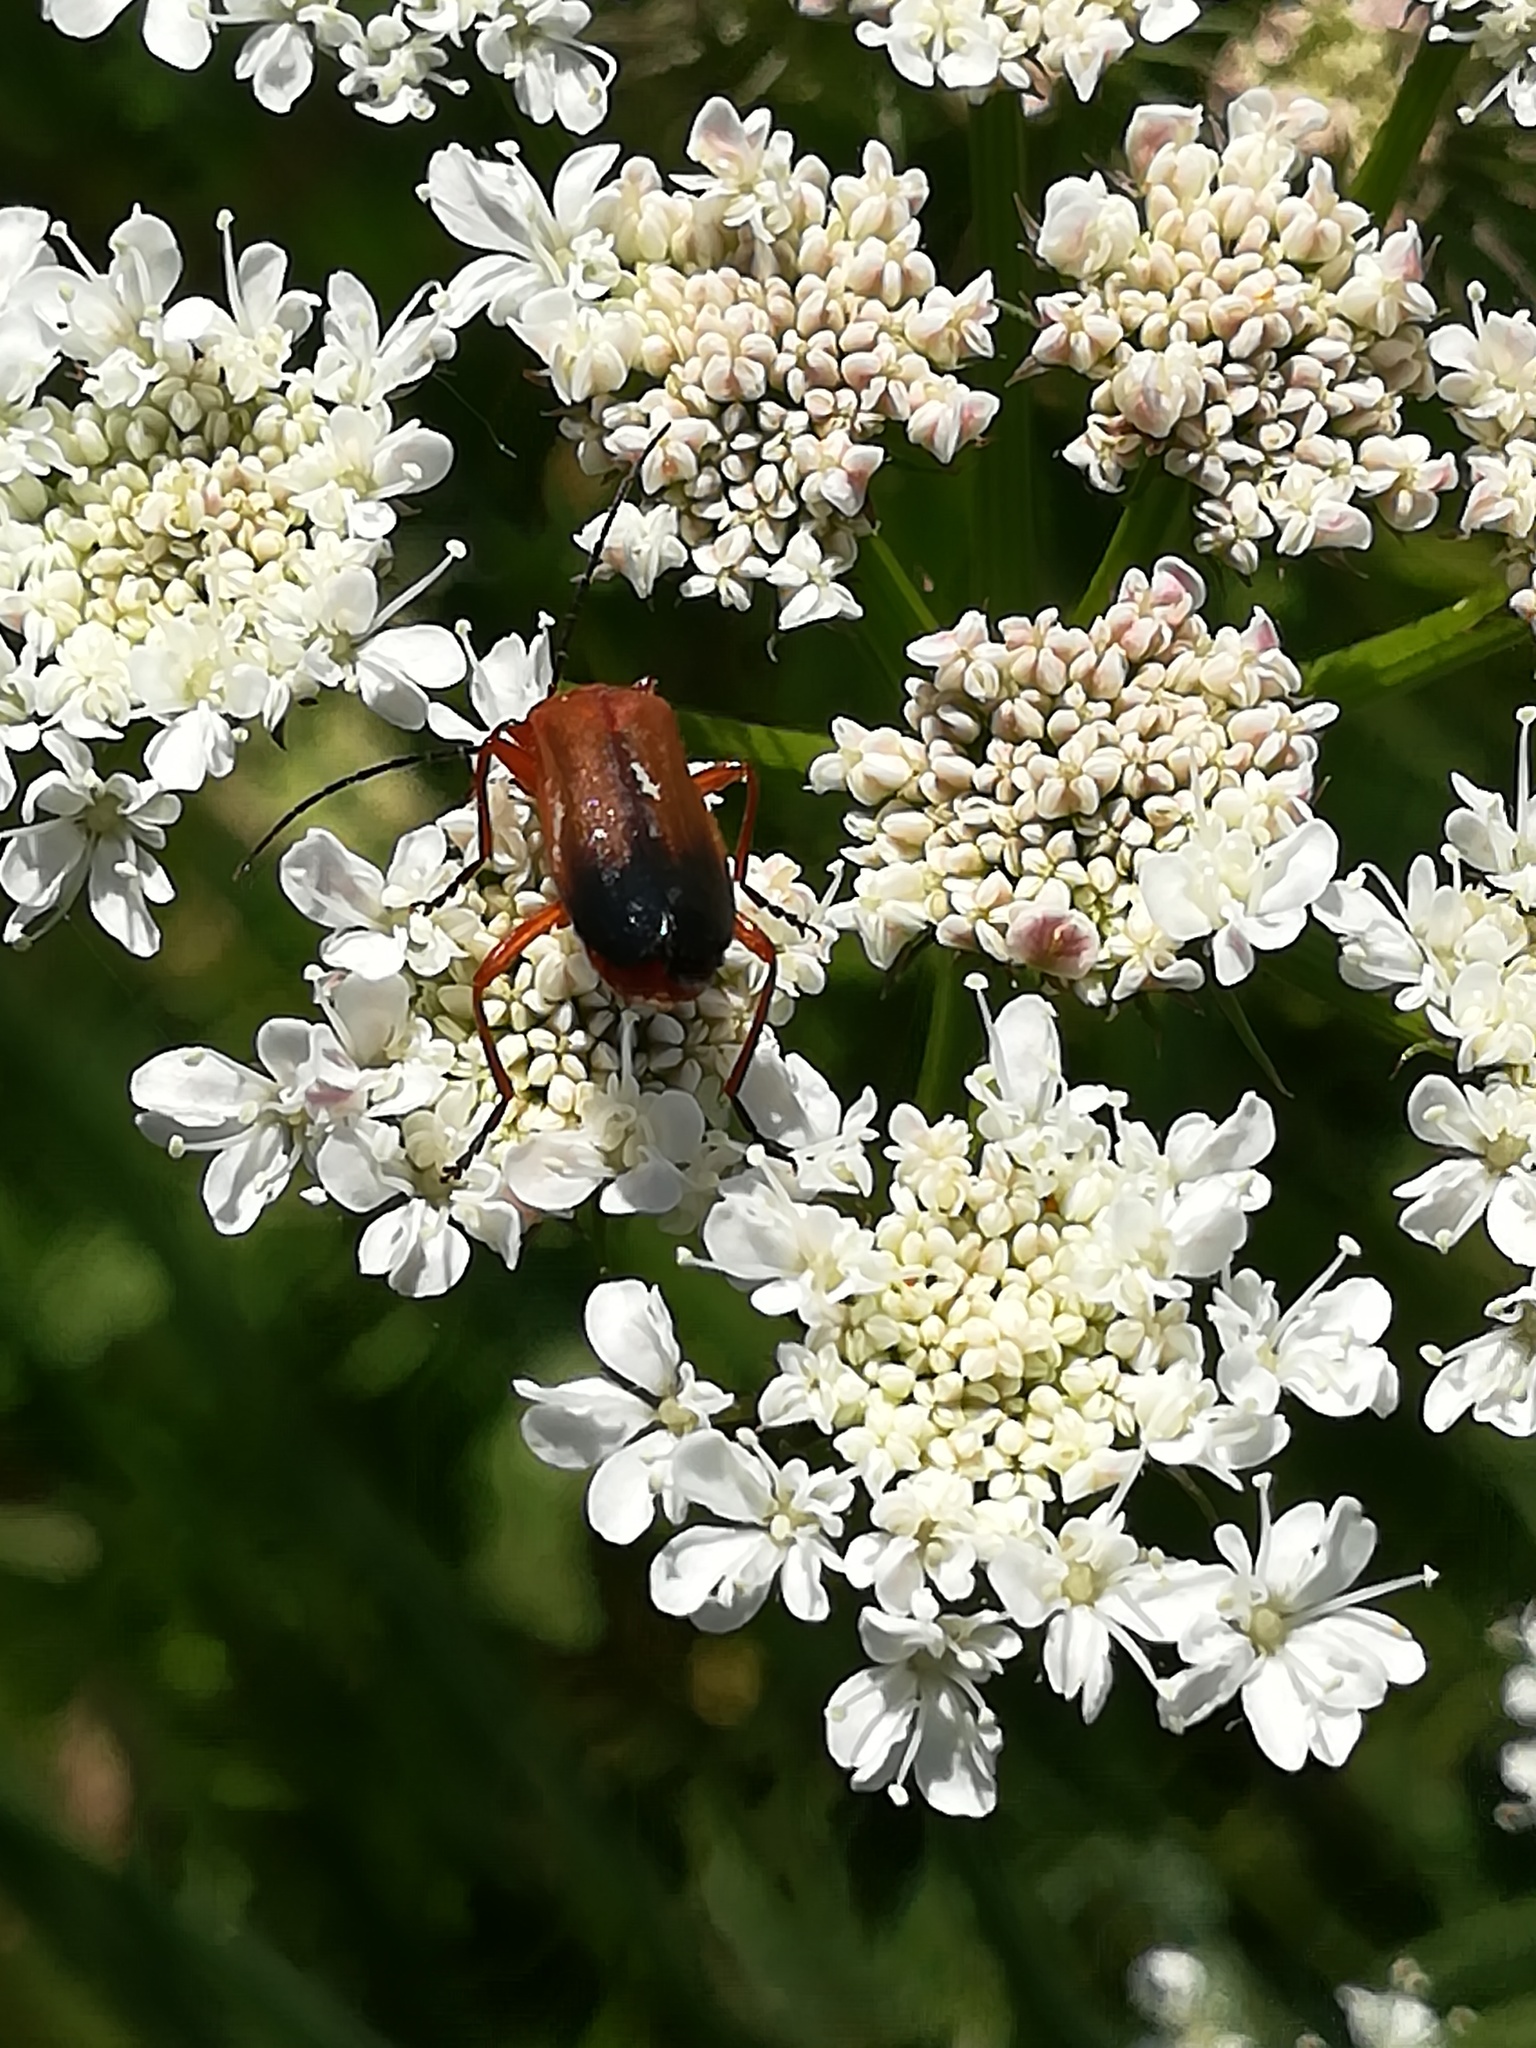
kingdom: Animalia
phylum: Arthropoda
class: Insecta
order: Coleoptera
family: Cantharidae
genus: Rhagonycha
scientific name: Rhagonycha fulva
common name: Common red soldier beetle
